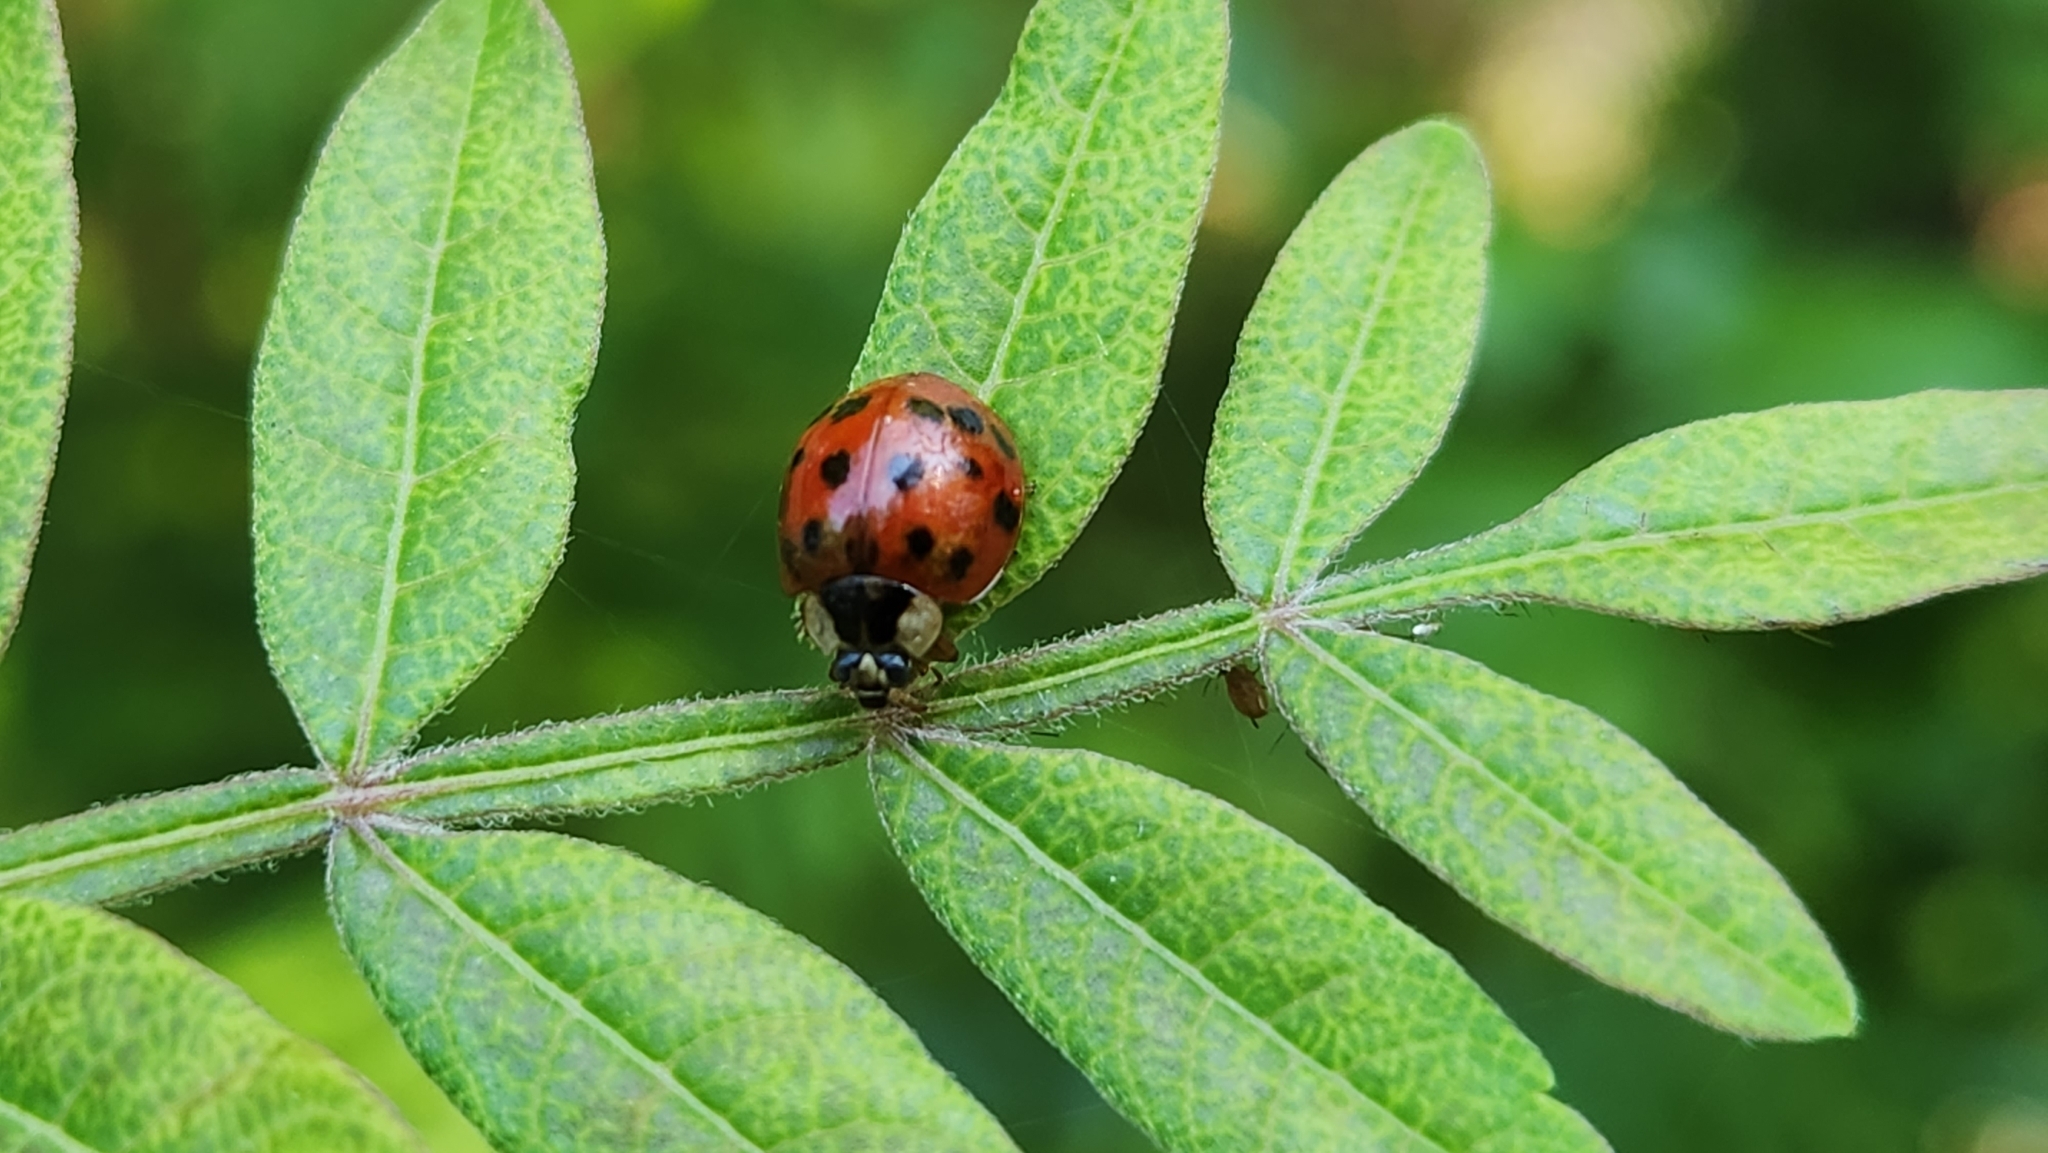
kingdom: Animalia
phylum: Arthropoda
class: Insecta
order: Coleoptera
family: Coccinellidae
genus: Harmonia
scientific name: Harmonia axyridis
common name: Harlequin ladybird
